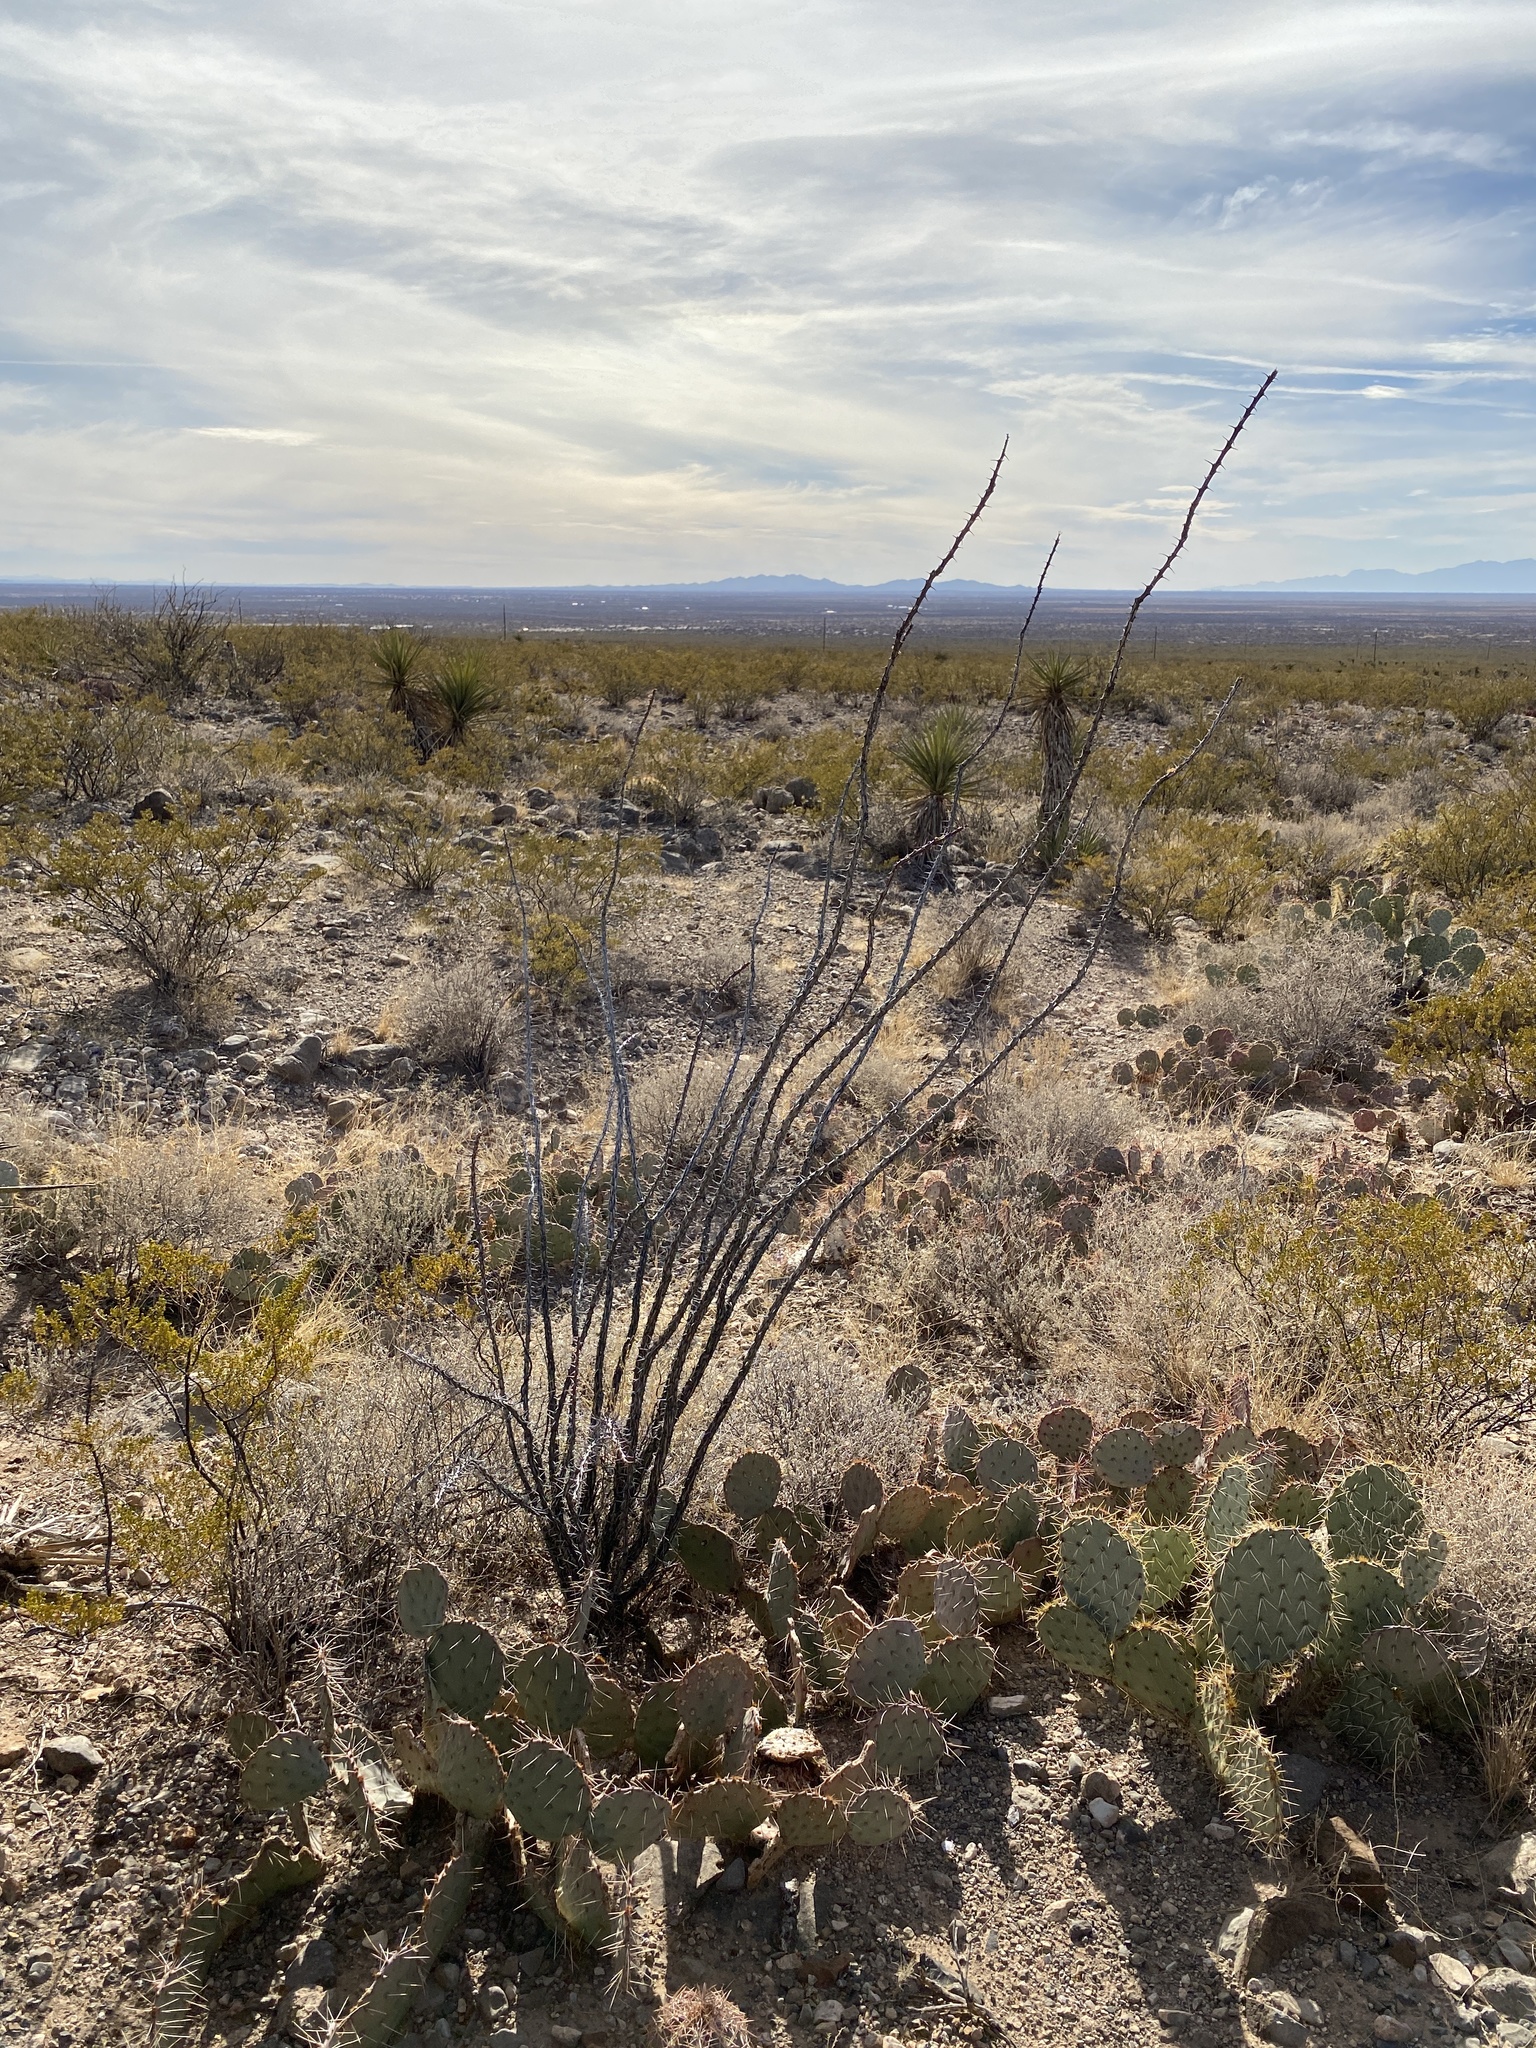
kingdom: Plantae
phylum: Tracheophyta
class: Magnoliopsida
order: Ericales
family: Fouquieriaceae
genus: Fouquieria
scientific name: Fouquieria splendens
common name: Vine-cactus
